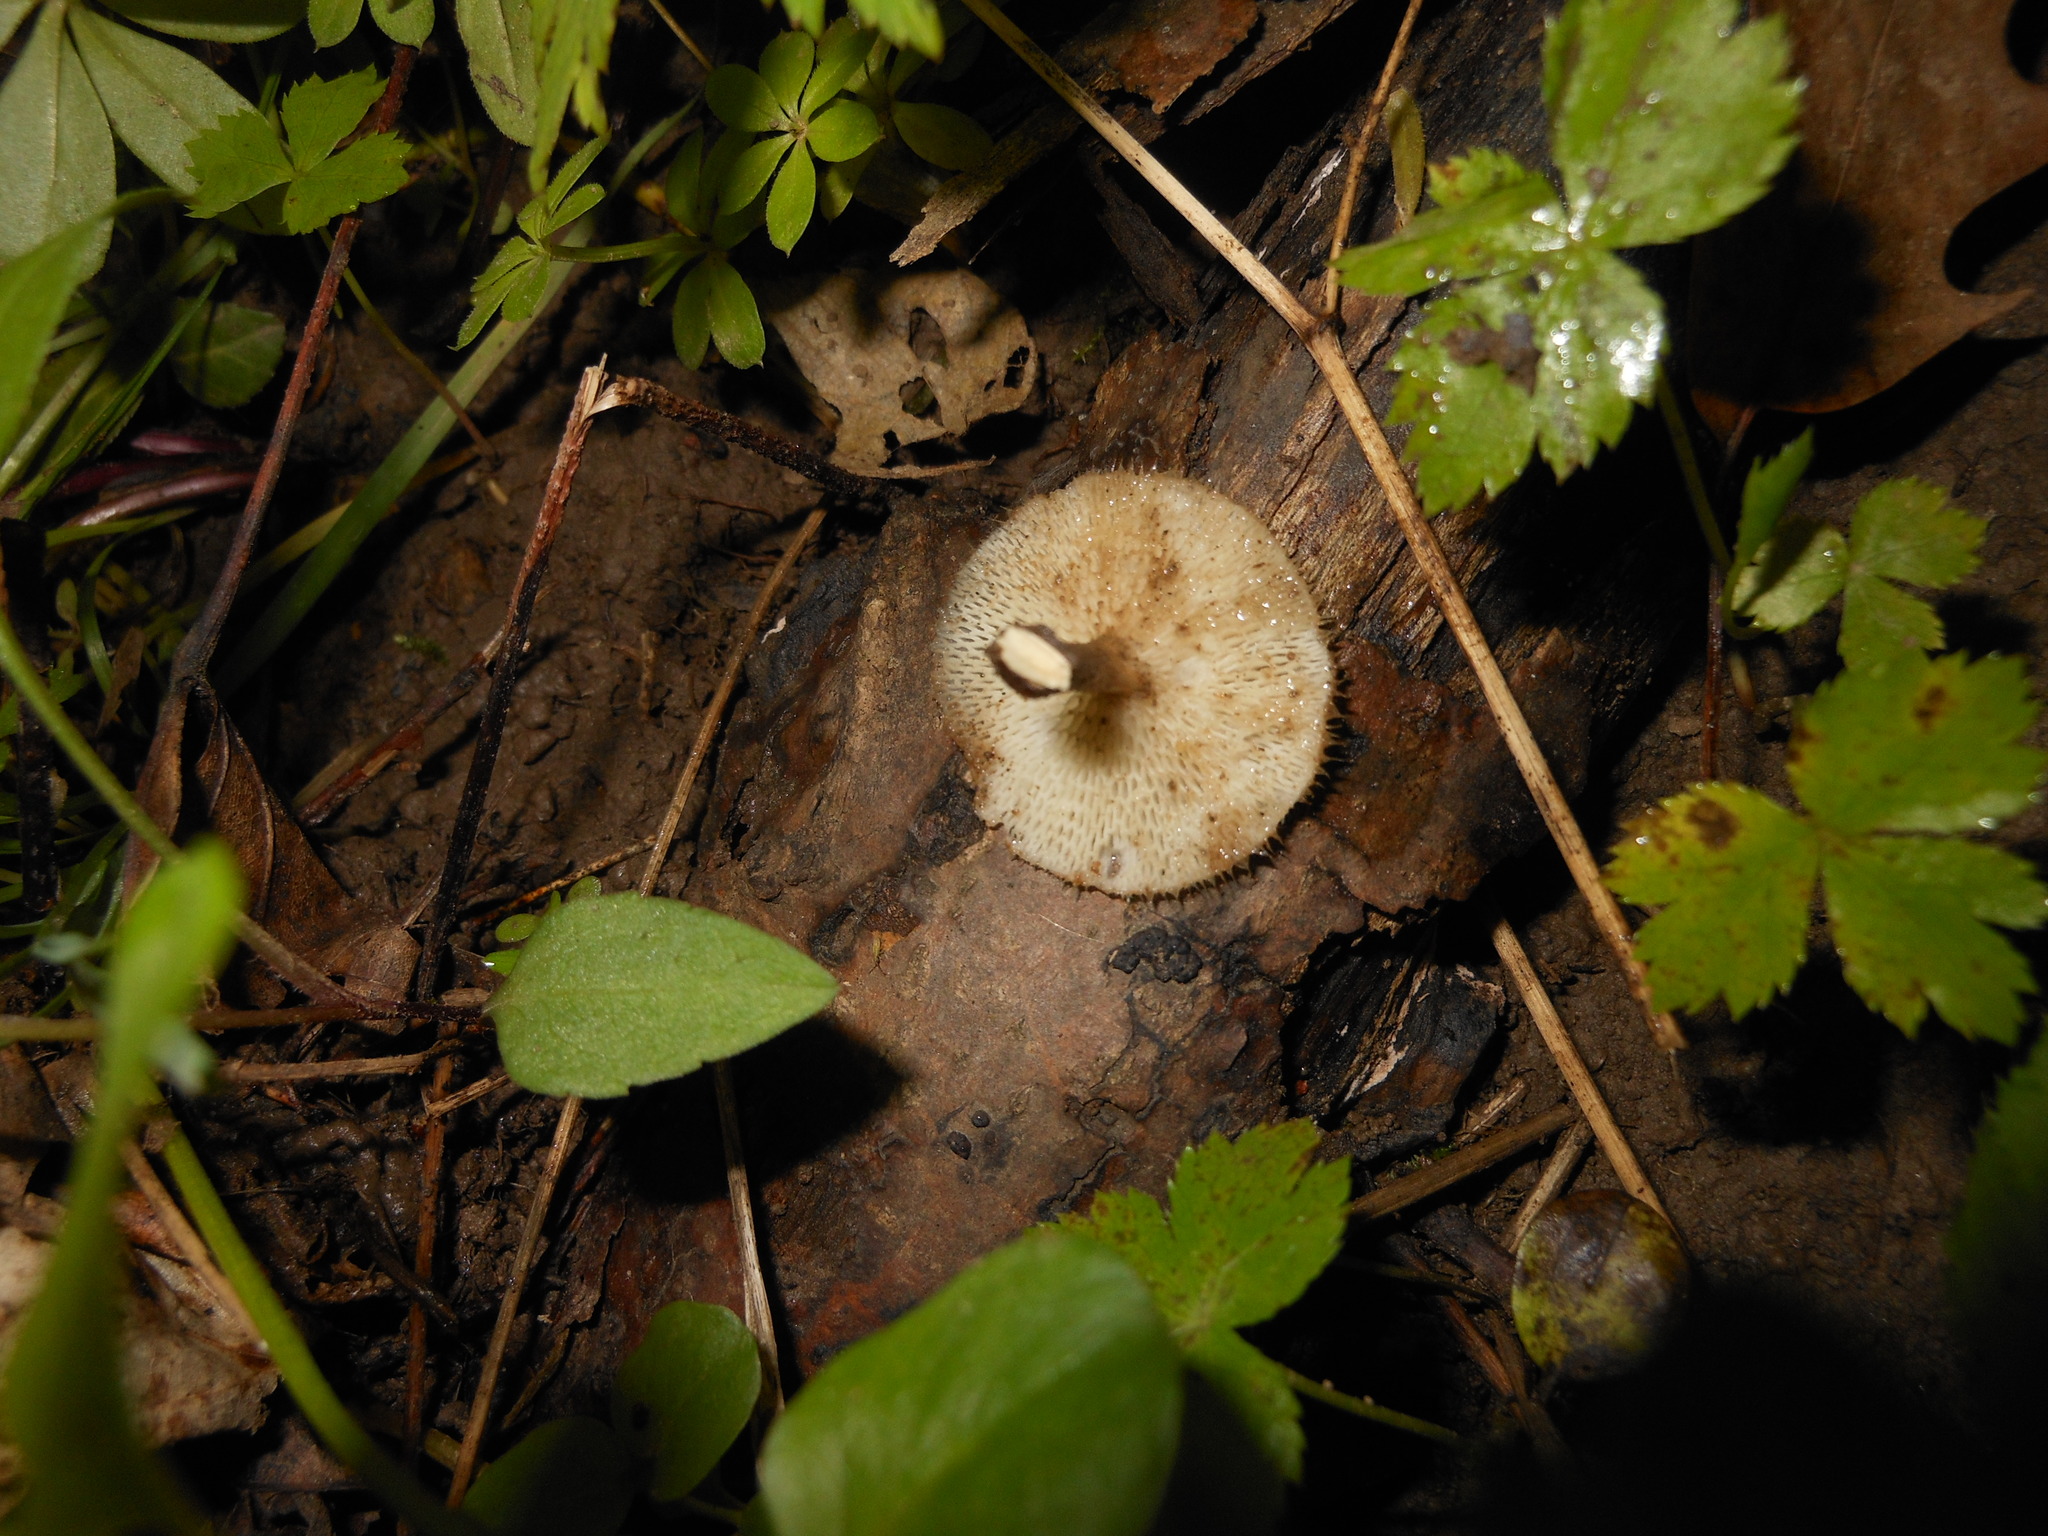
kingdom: Fungi
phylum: Basidiomycota
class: Agaricomycetes
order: Polyporales
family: Polyporaceae
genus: Lentinus
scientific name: Lentinus arcularius
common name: Spring polypore
